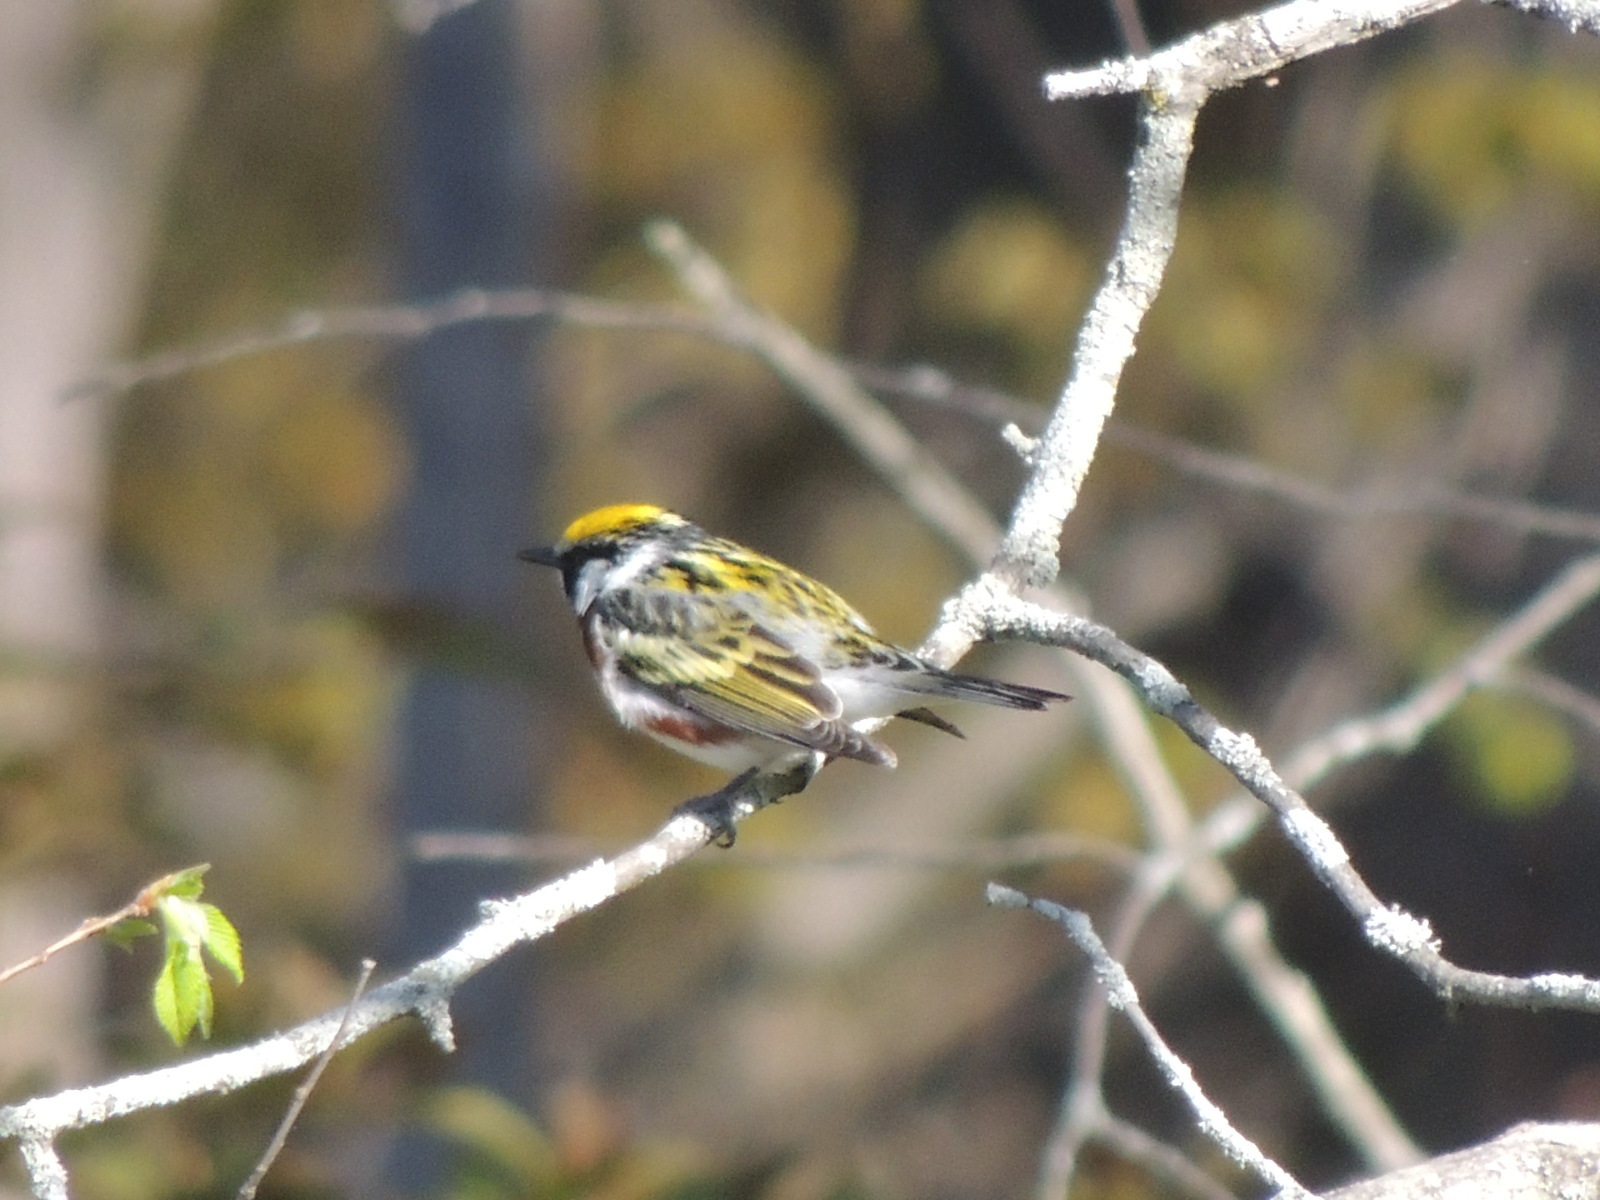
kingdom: Animalia
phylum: Chordata
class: Aves
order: Passeriformes
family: Parulidae
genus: Setophaga
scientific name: Setophaga pensylvanica
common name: Chestnut-sided warbler
